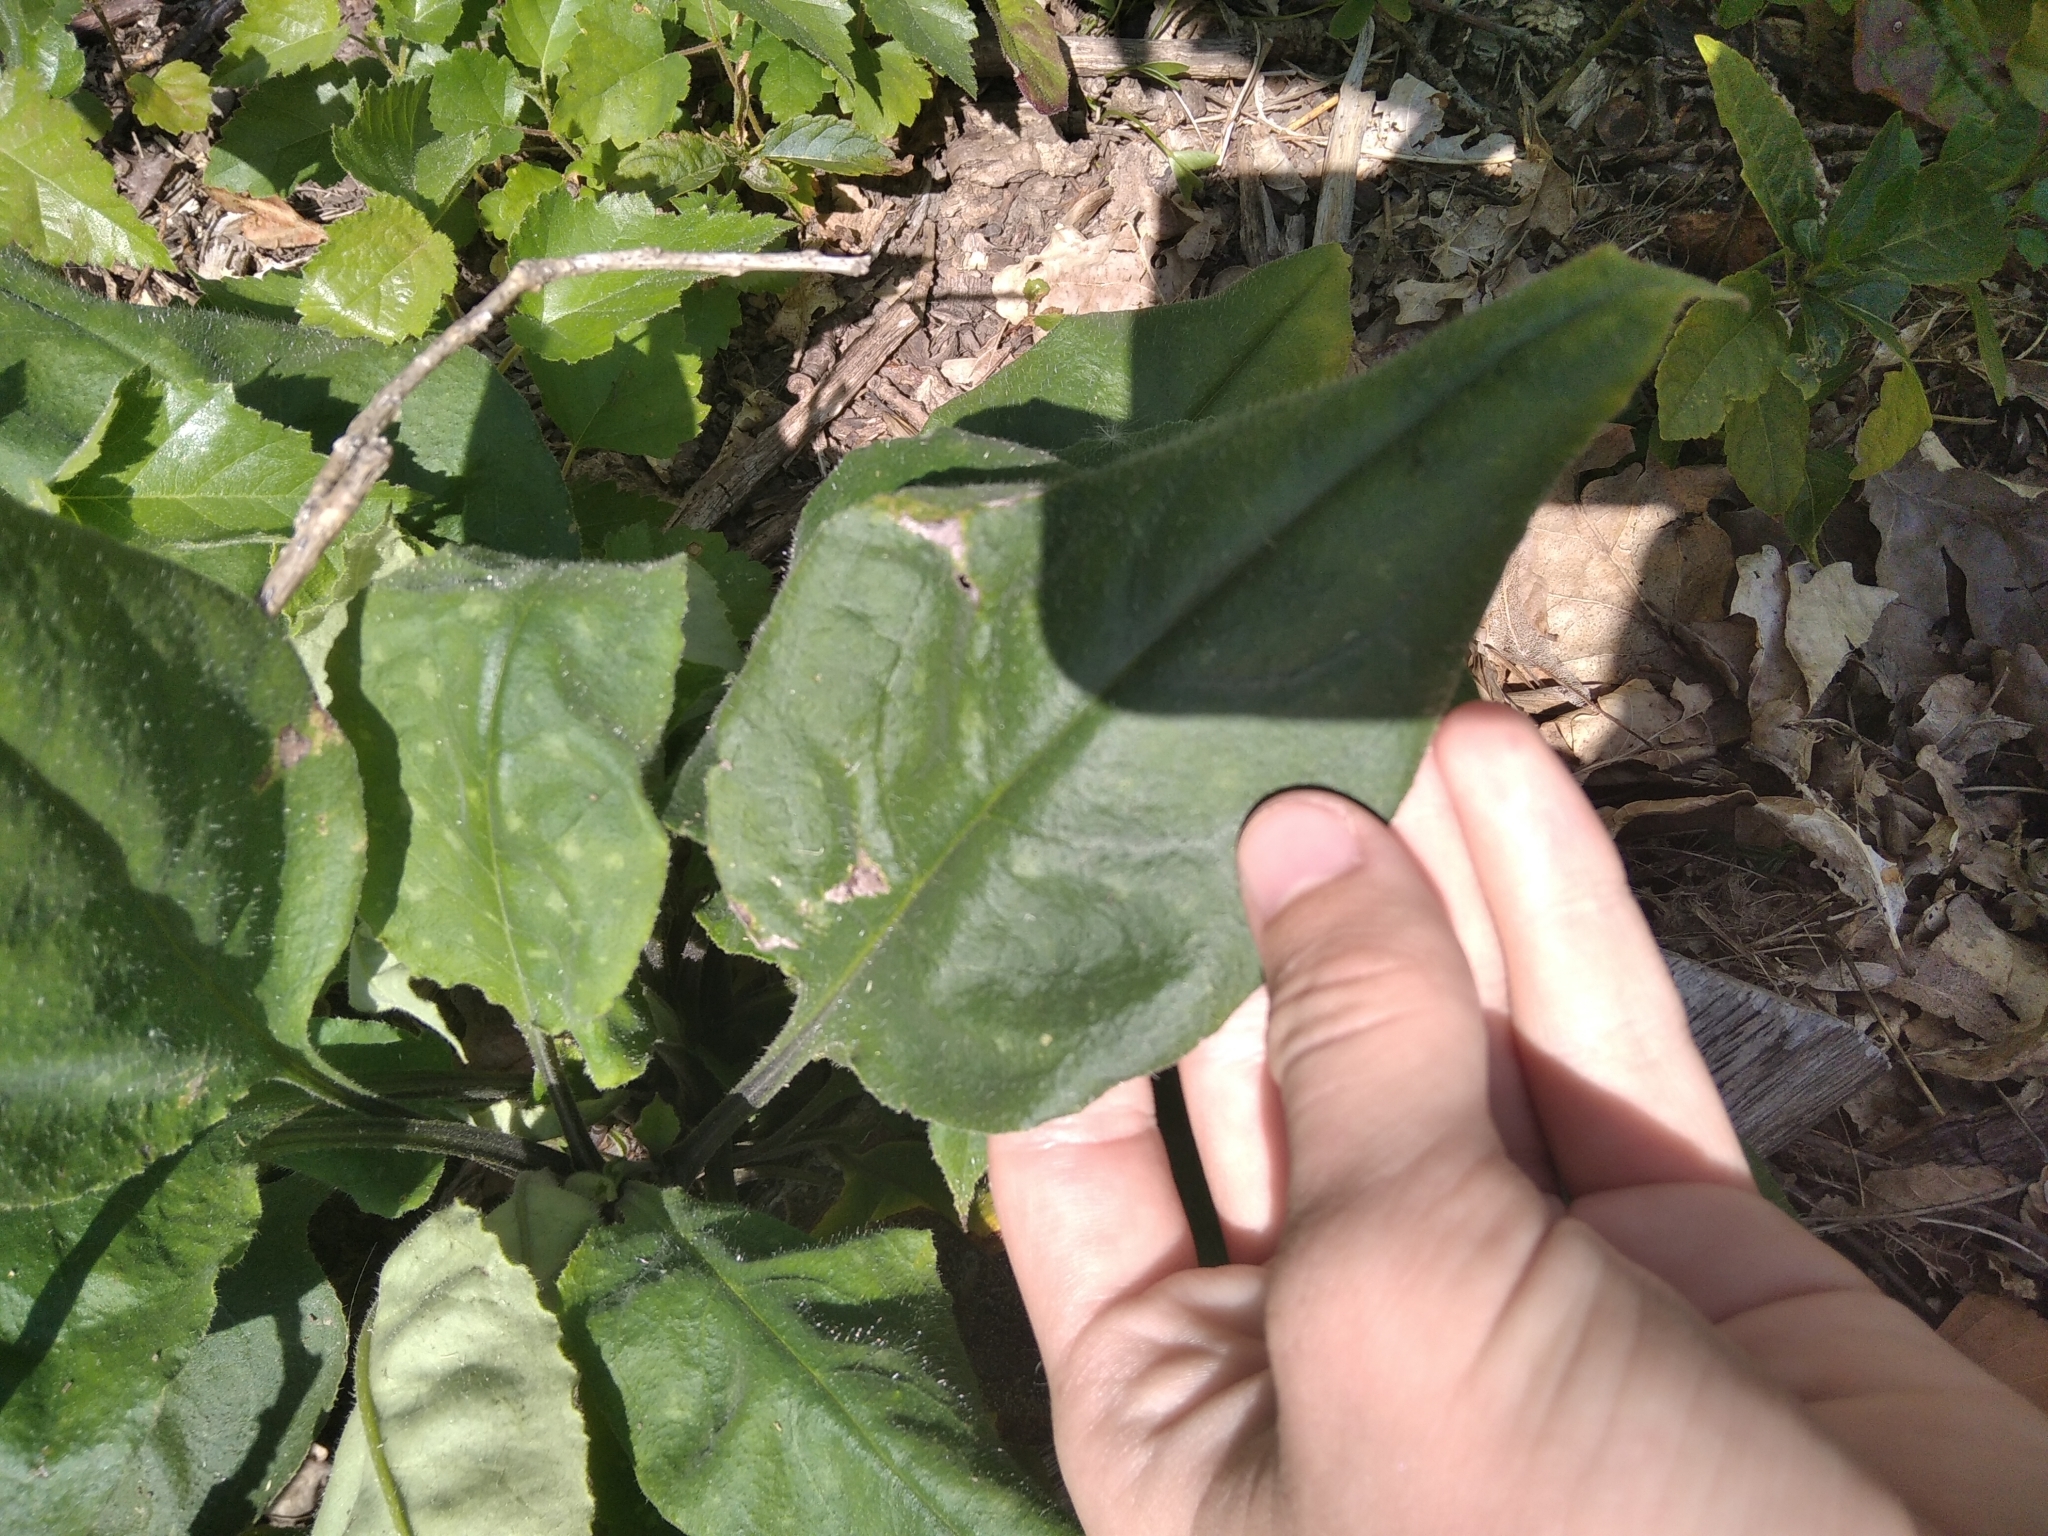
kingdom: Plantae
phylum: Tracheophyta
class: Magnoliopsida
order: Boraginales
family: Boraginaceae
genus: Pulmonaria
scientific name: Pulmonaria obscura
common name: Suffolk lungwort
